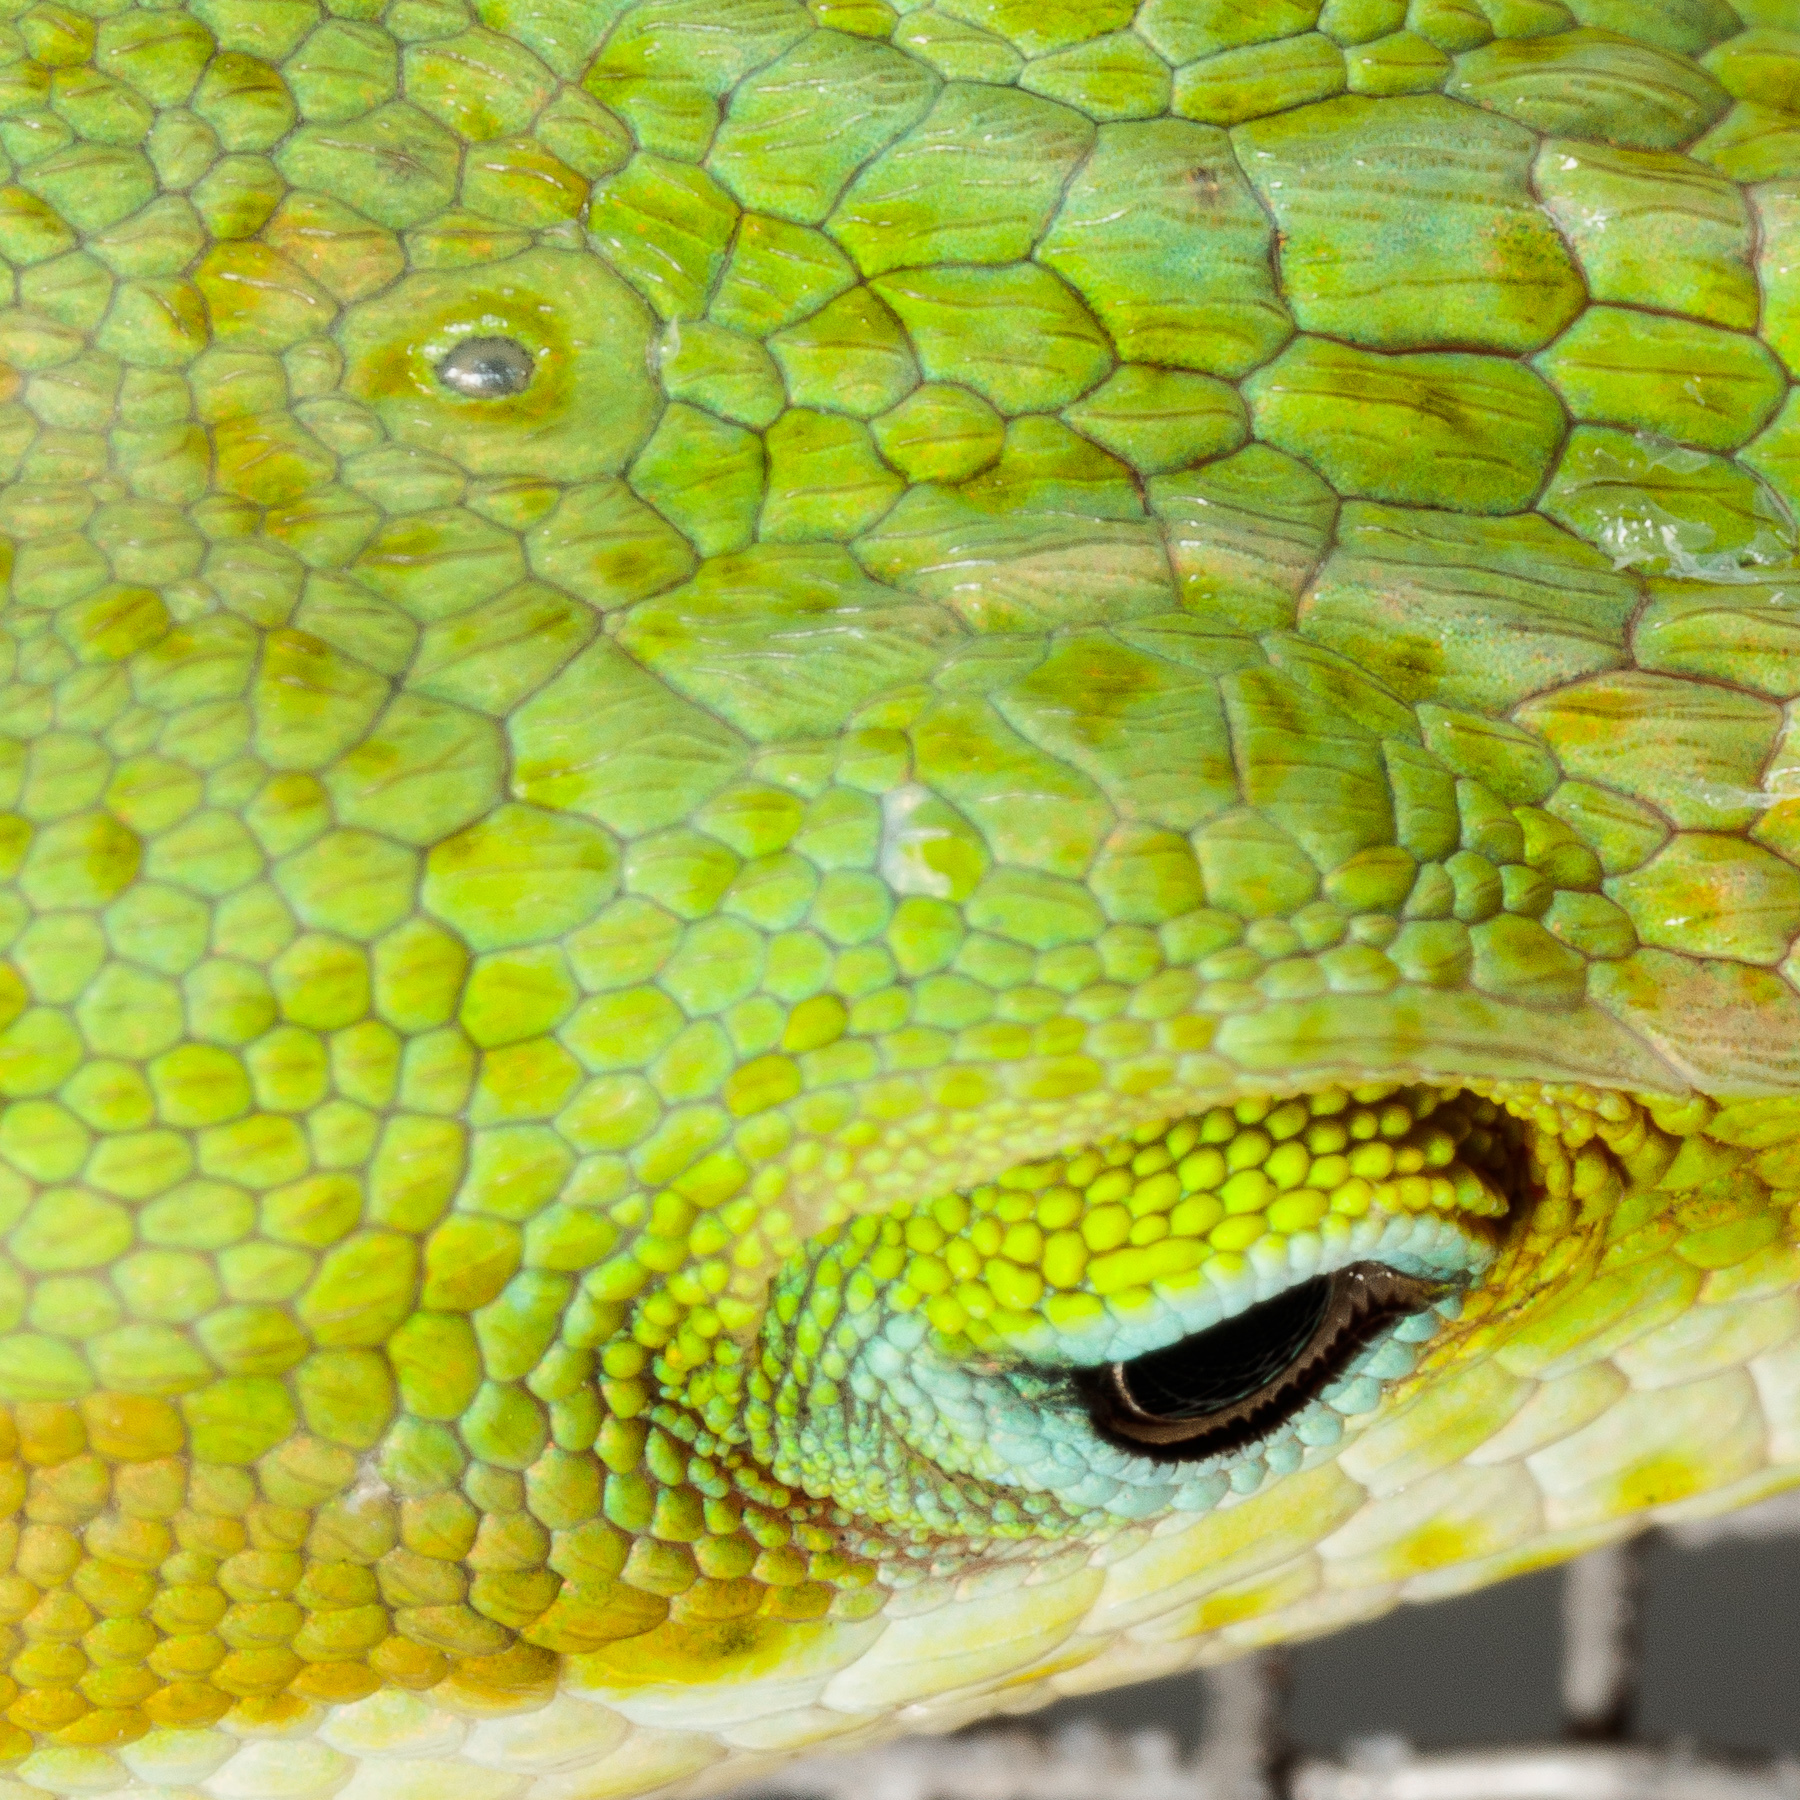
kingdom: Animalia
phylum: Chordata
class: Squamata
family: Dactyloidae
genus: Anolis
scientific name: Anolis carolinensis
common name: Green anole
